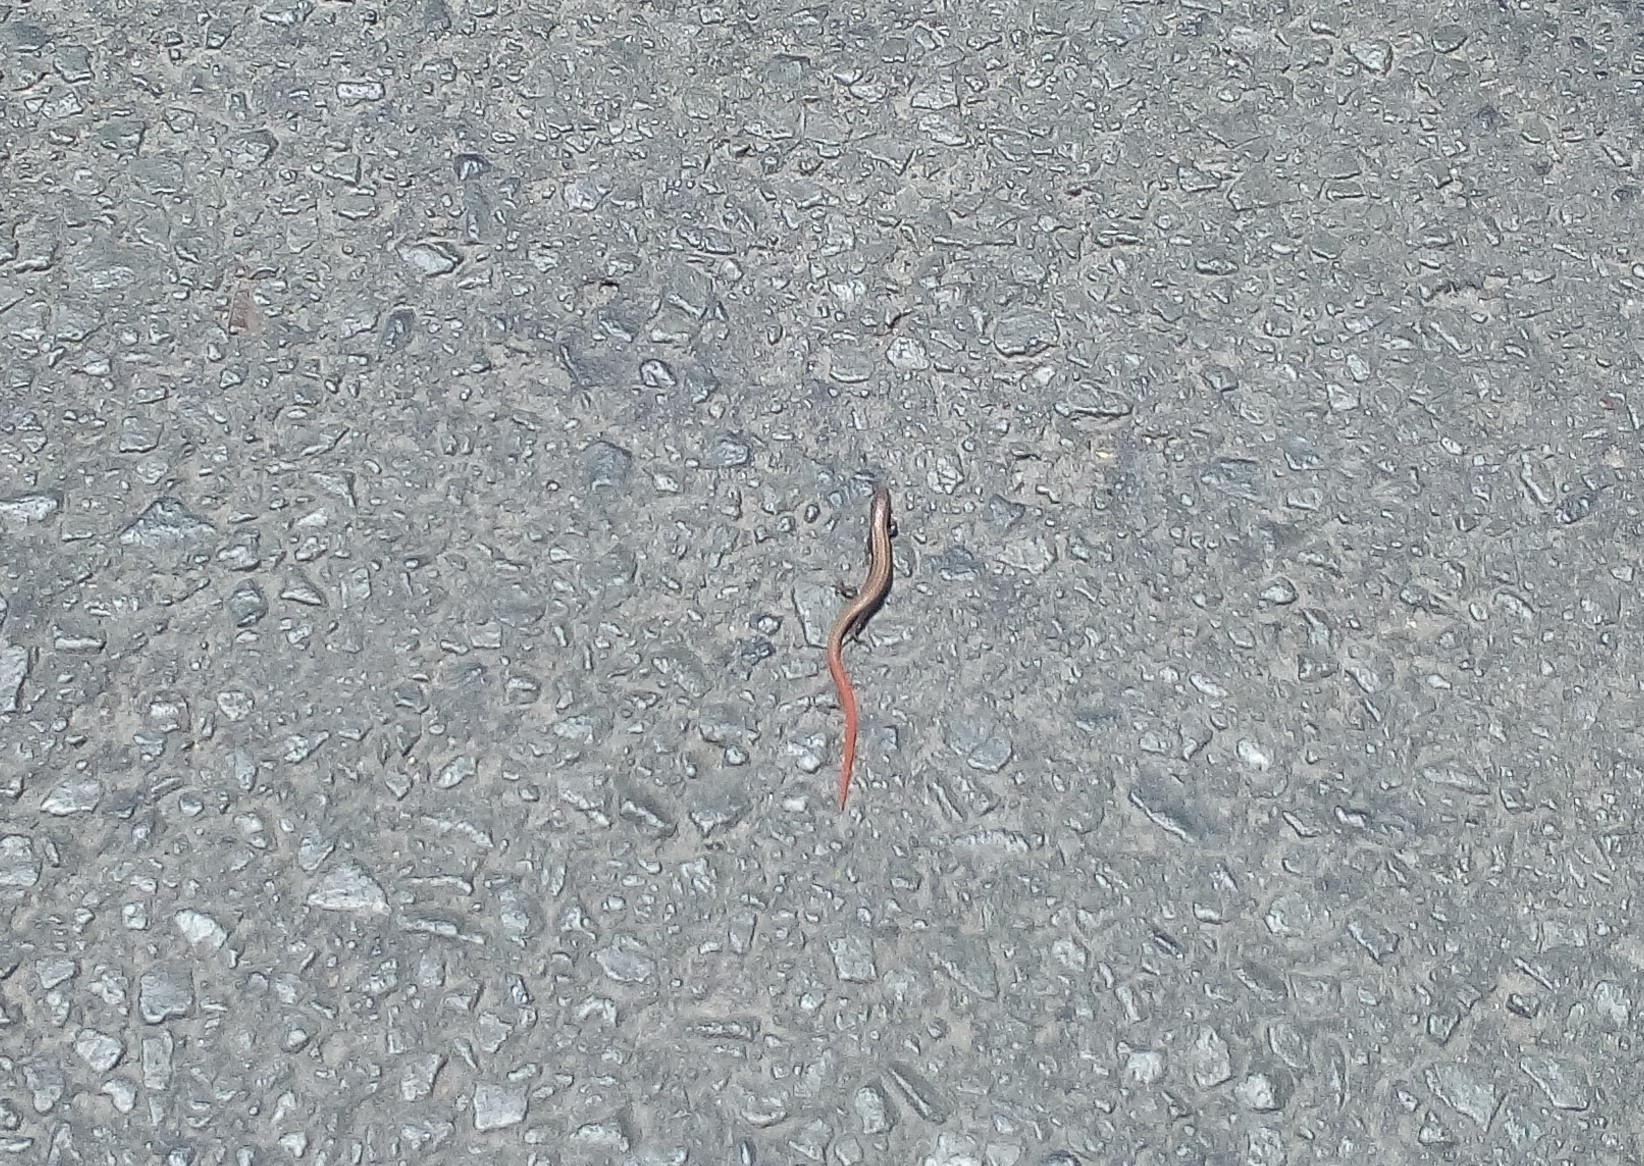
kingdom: Animalia
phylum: Chordata
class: Squamata
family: Gymnophthalmidae
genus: Gymnophthalmus
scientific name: Gymnophthalmus speciosus
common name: Golden spectacled tegu
